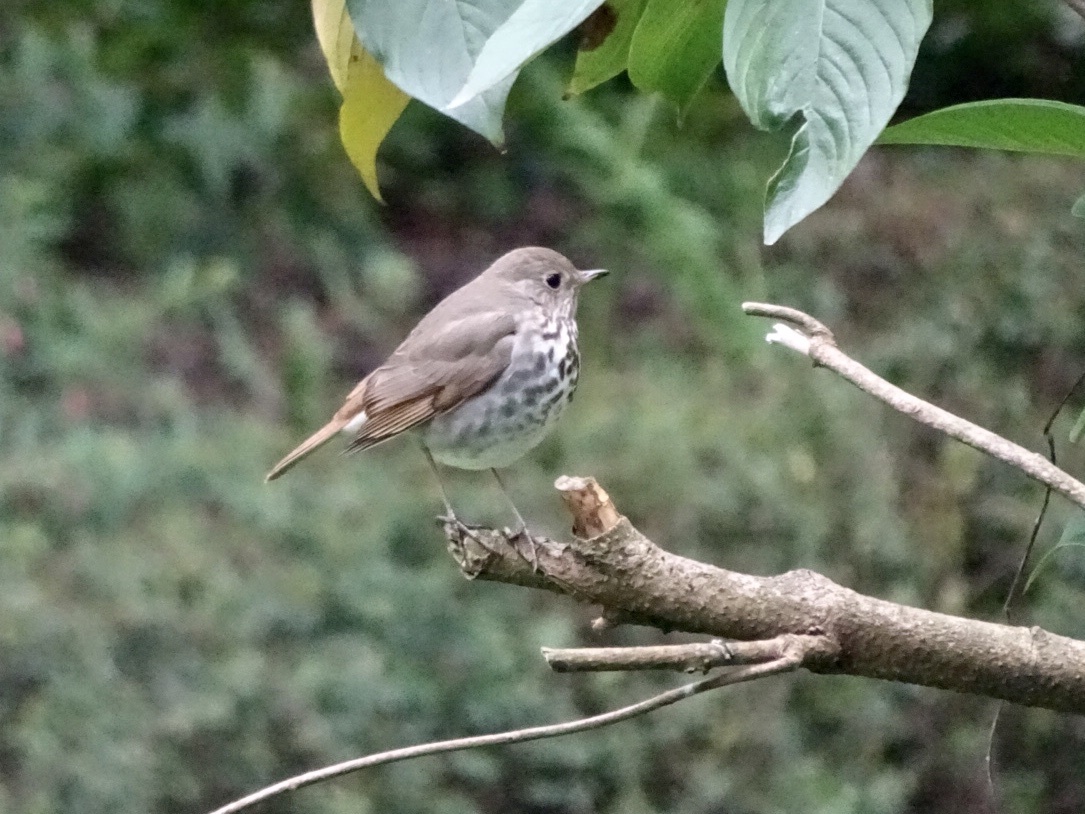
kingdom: Animalia
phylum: Chordata
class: Aves
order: Passeriformes
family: Turdidae
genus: Catharus
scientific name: Catharus guttatus
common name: Hermit thrush
